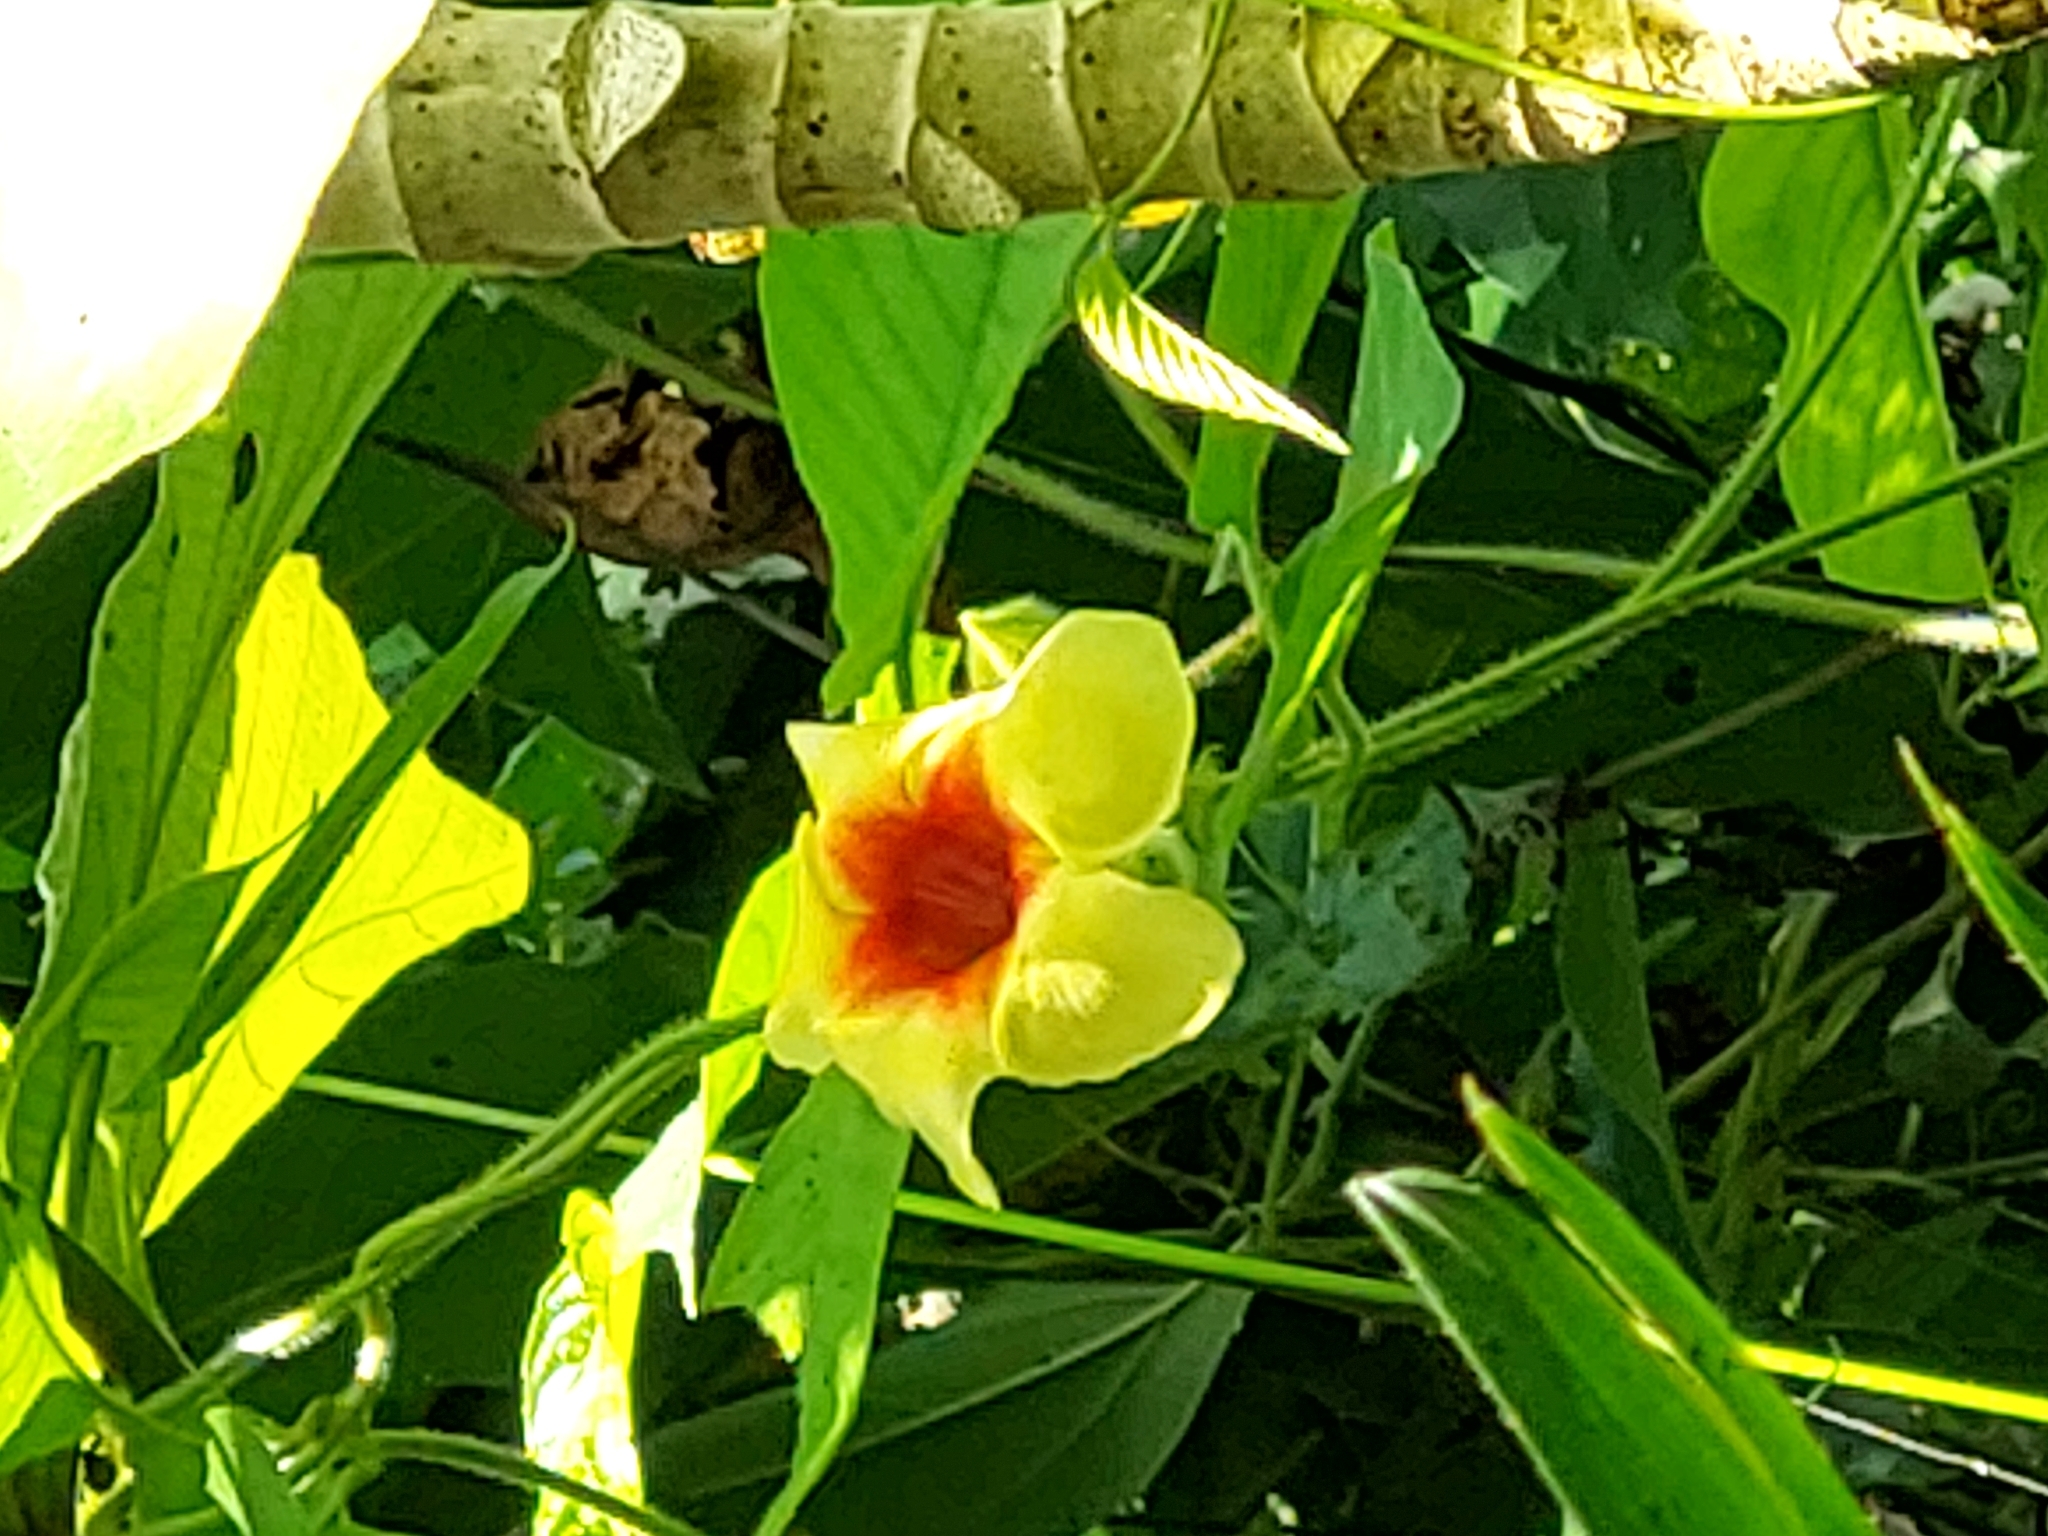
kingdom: Plantae
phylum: Tracheophyta
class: Magnoliopsida
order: Gentianales
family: Apocynaceae
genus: Mandevilla
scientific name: Mandevilla hirsuta
